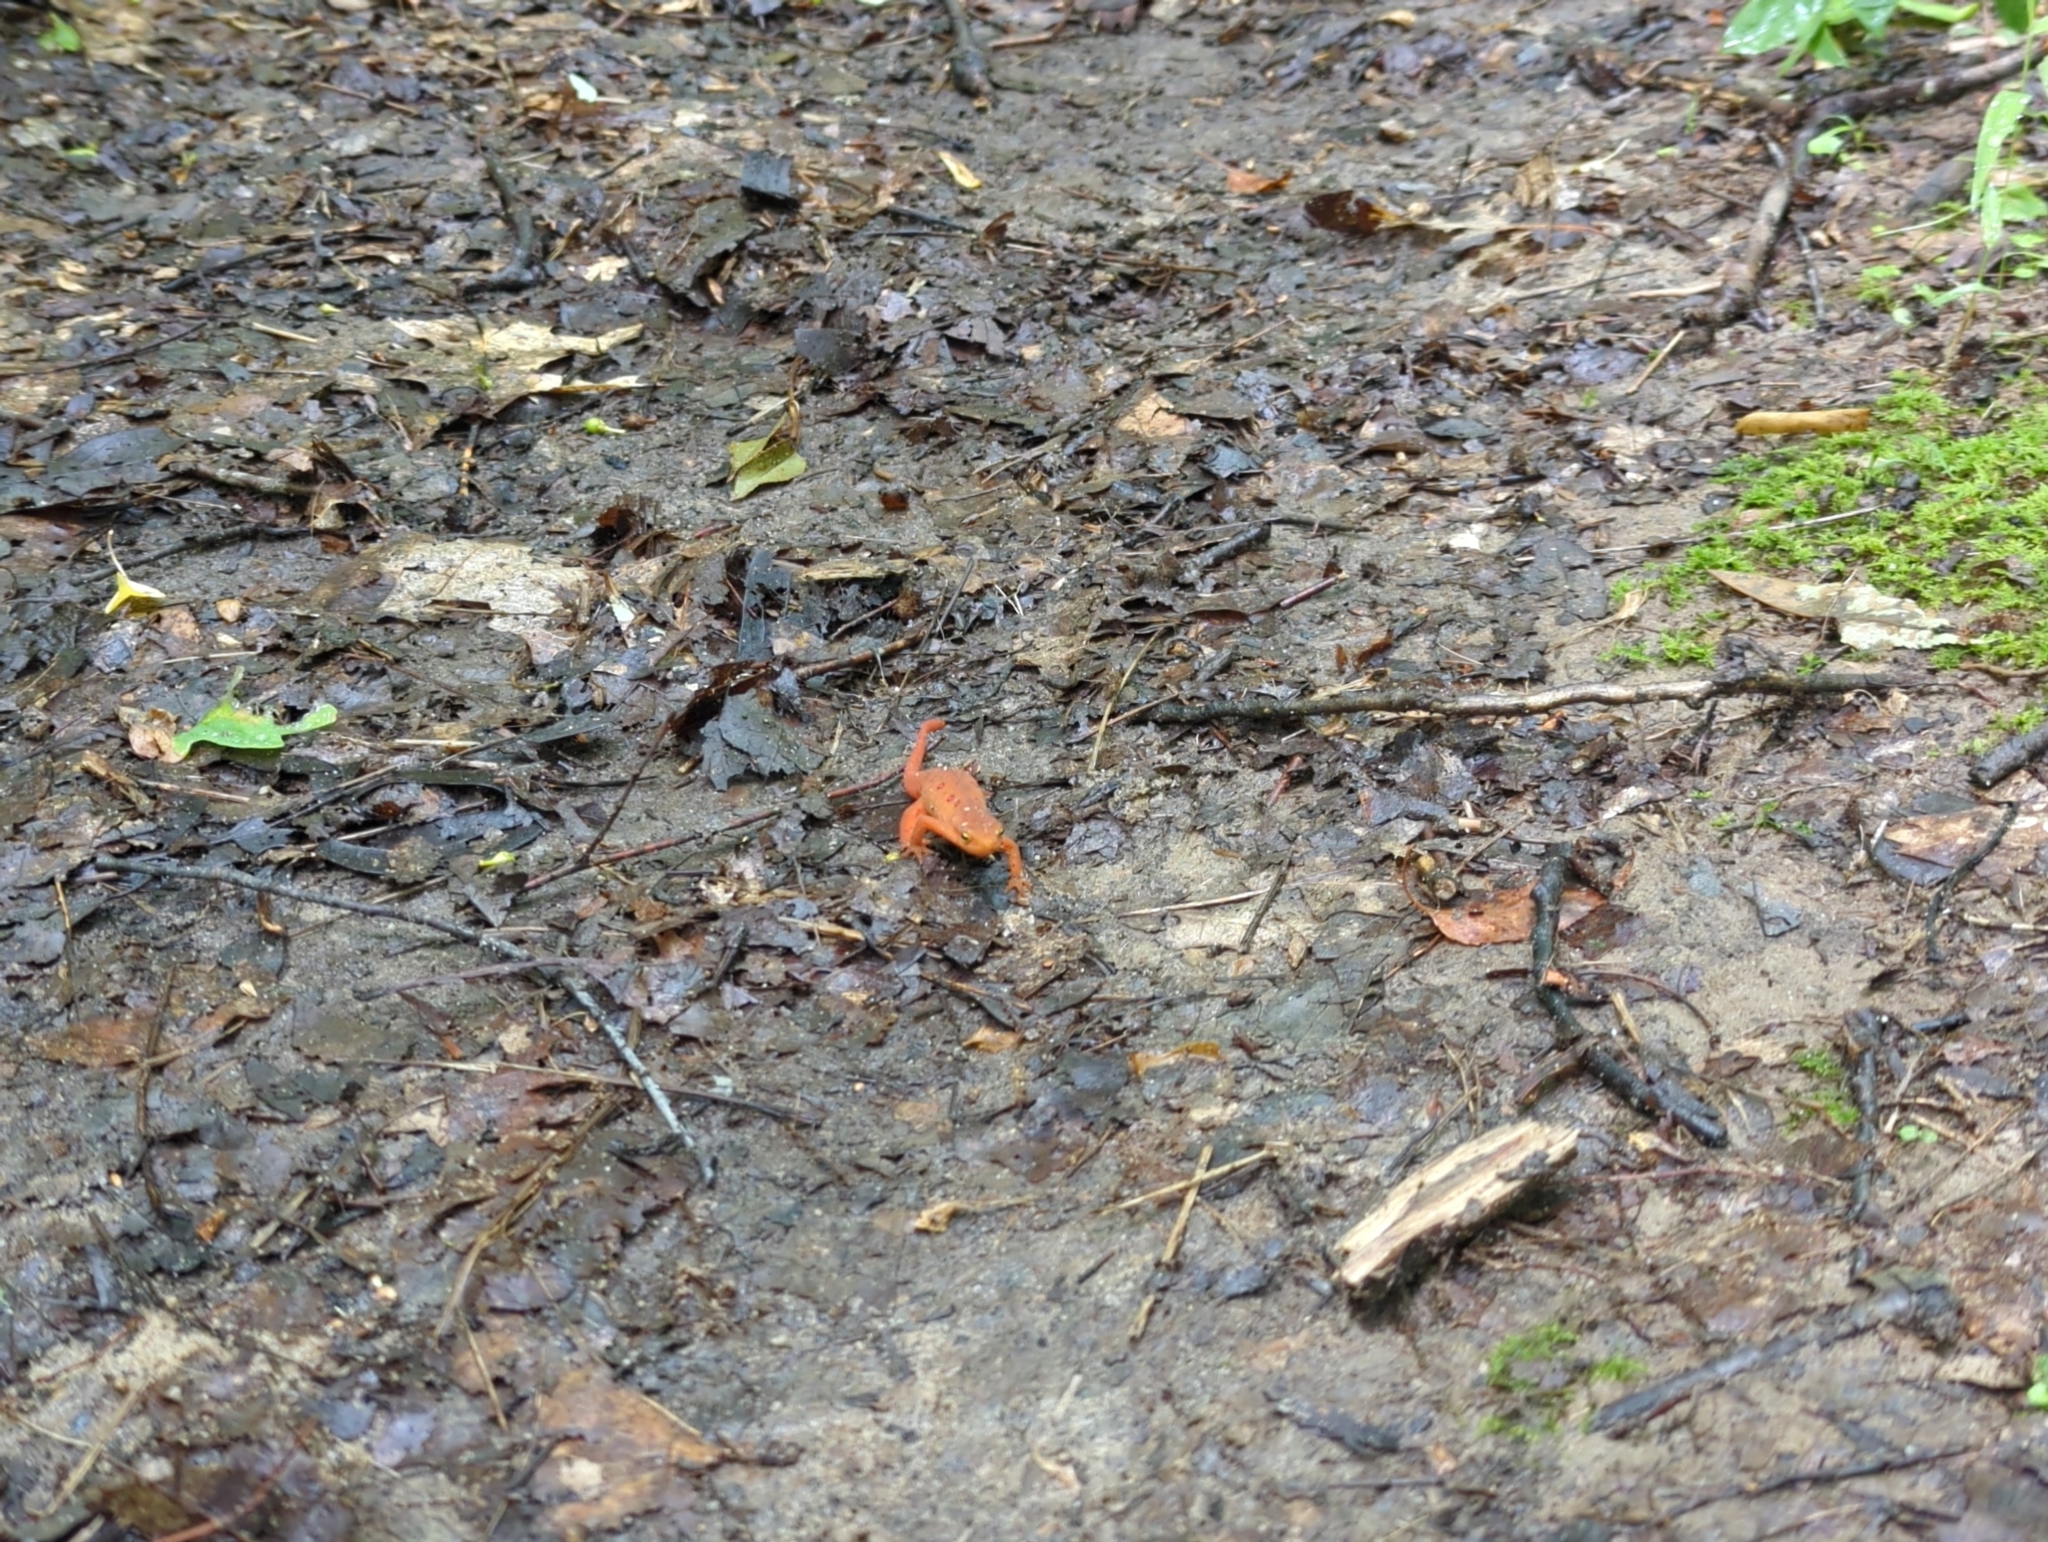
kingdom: Animalia
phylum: Chordata
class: Amphibia
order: Caudata
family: Salamandridae
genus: Notophthalmus
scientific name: Notophthalmus viridescens
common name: Eastern newt
